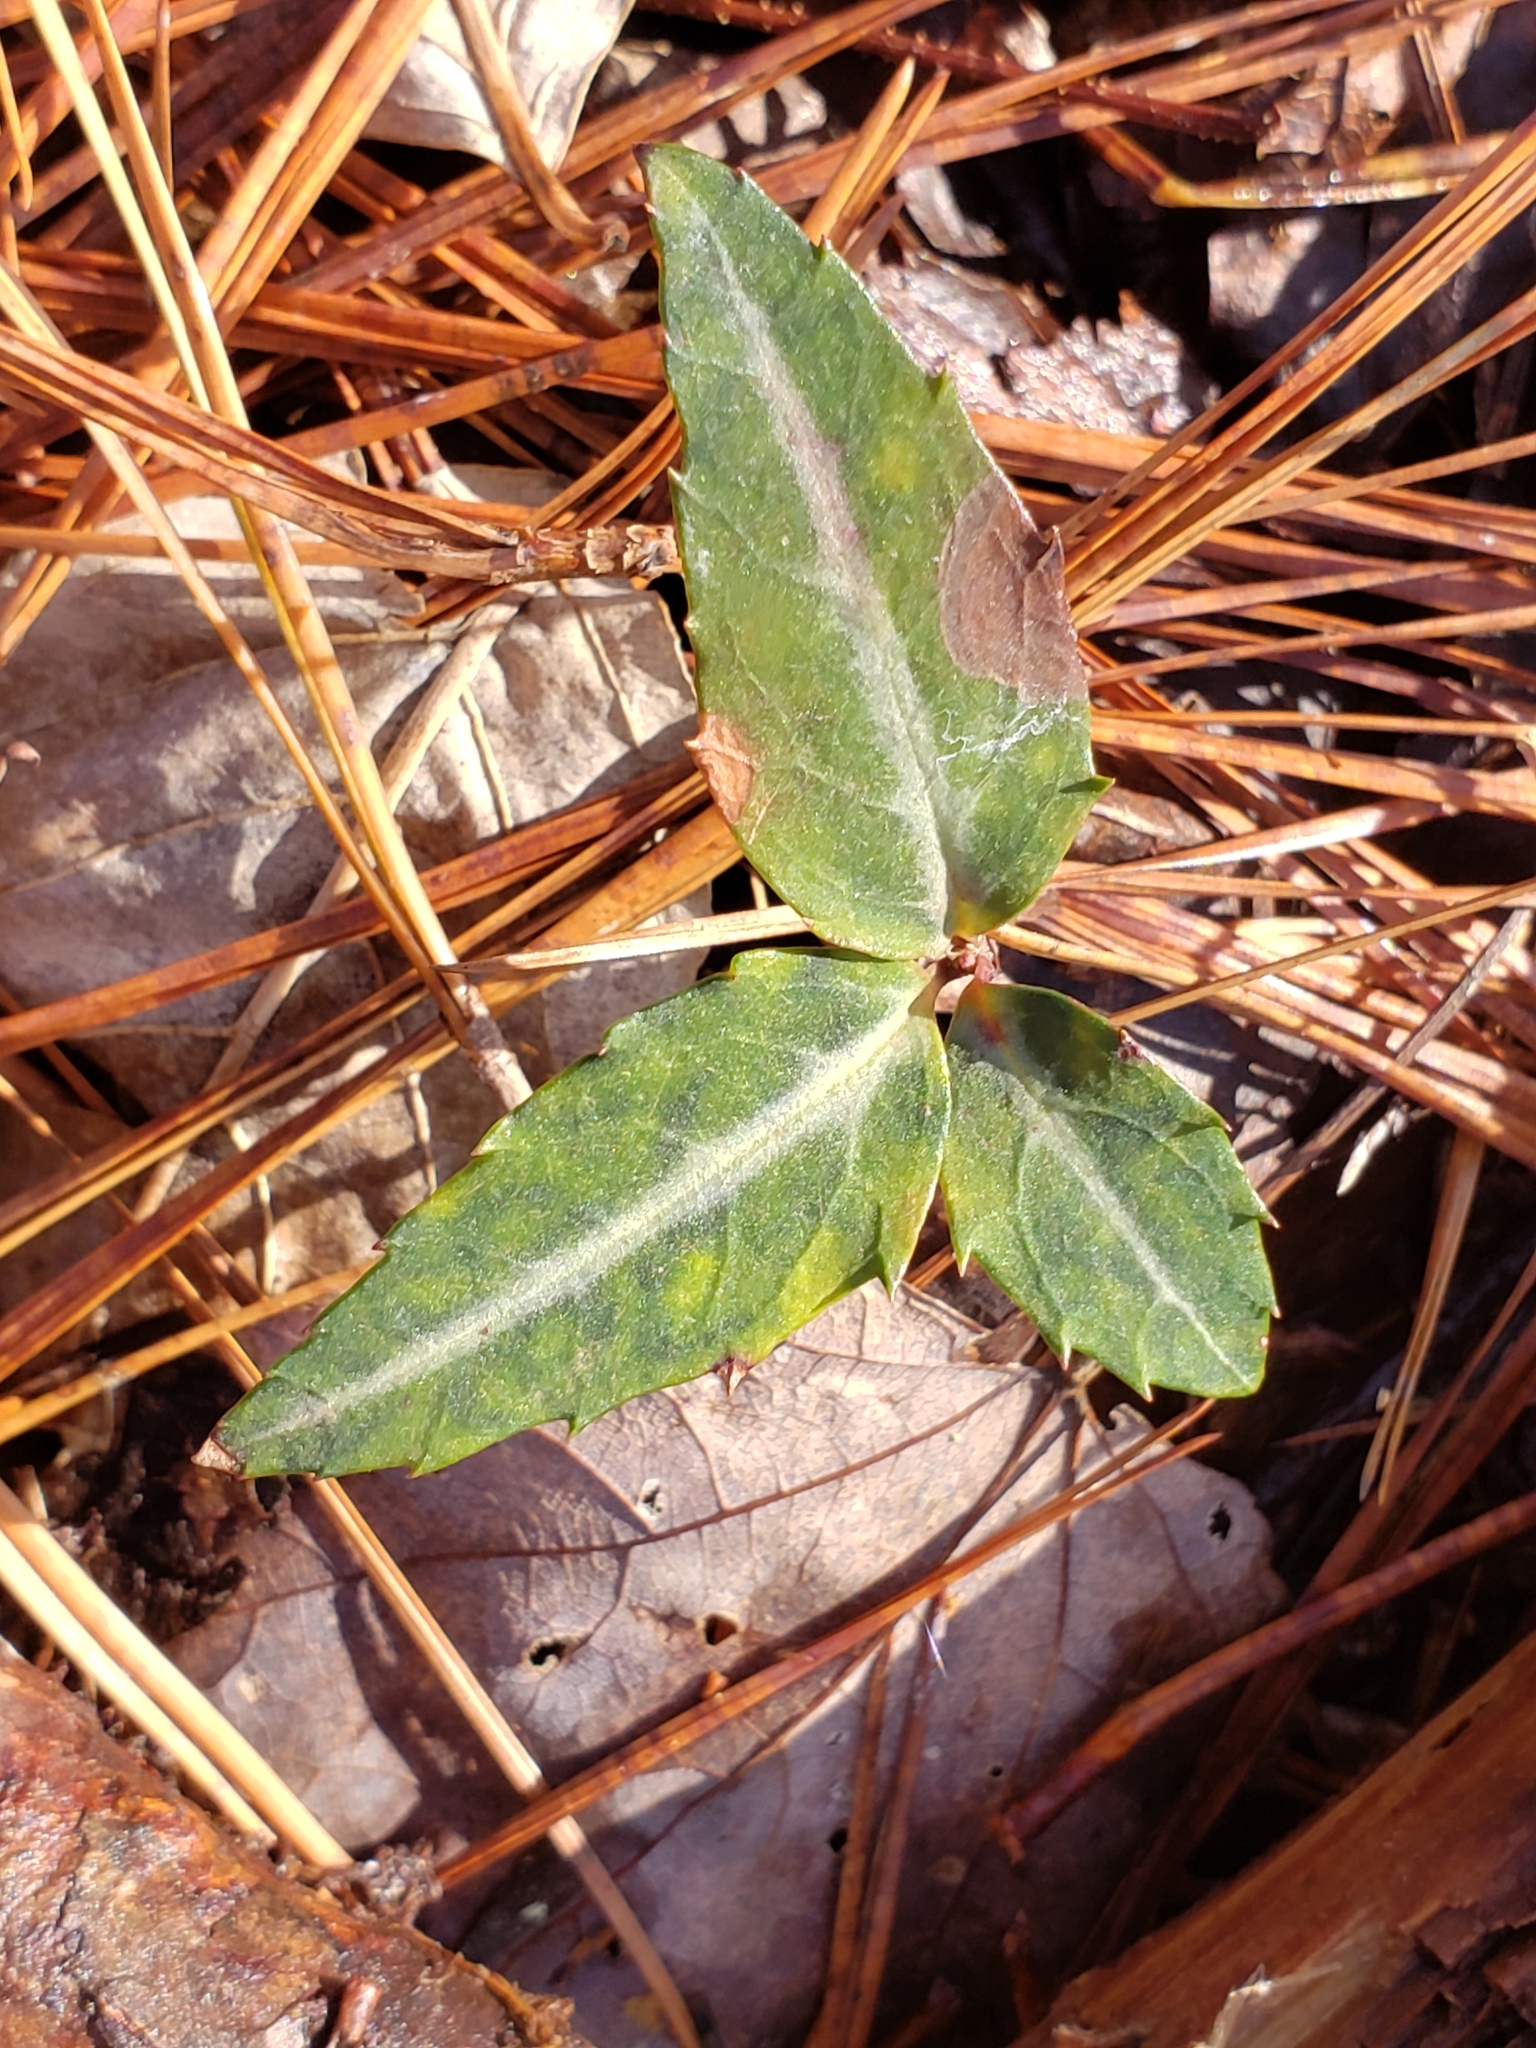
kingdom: Plantae
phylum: Tracheophyta
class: Magnoliopsida
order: Ericales
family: Ericaceae
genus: Chimaphila
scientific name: Chimaphila maculata
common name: Spotted pipsissewa
